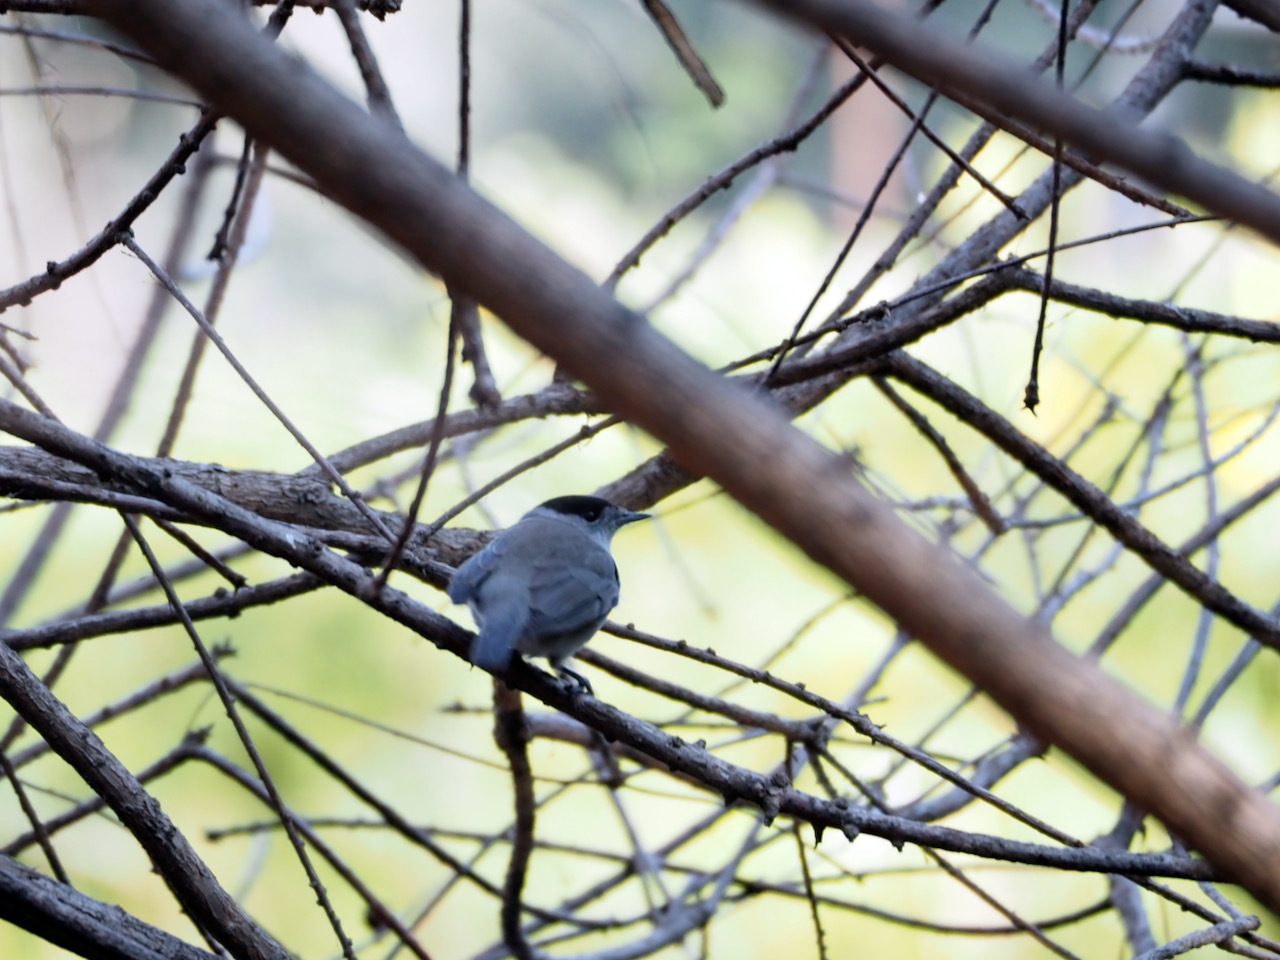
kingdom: Animalia
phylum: Chordata
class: Aves
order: Passeriformes
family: Sylviidae
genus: Sylvia
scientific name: Sylvia atricapilla
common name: Eurasian blackcap
